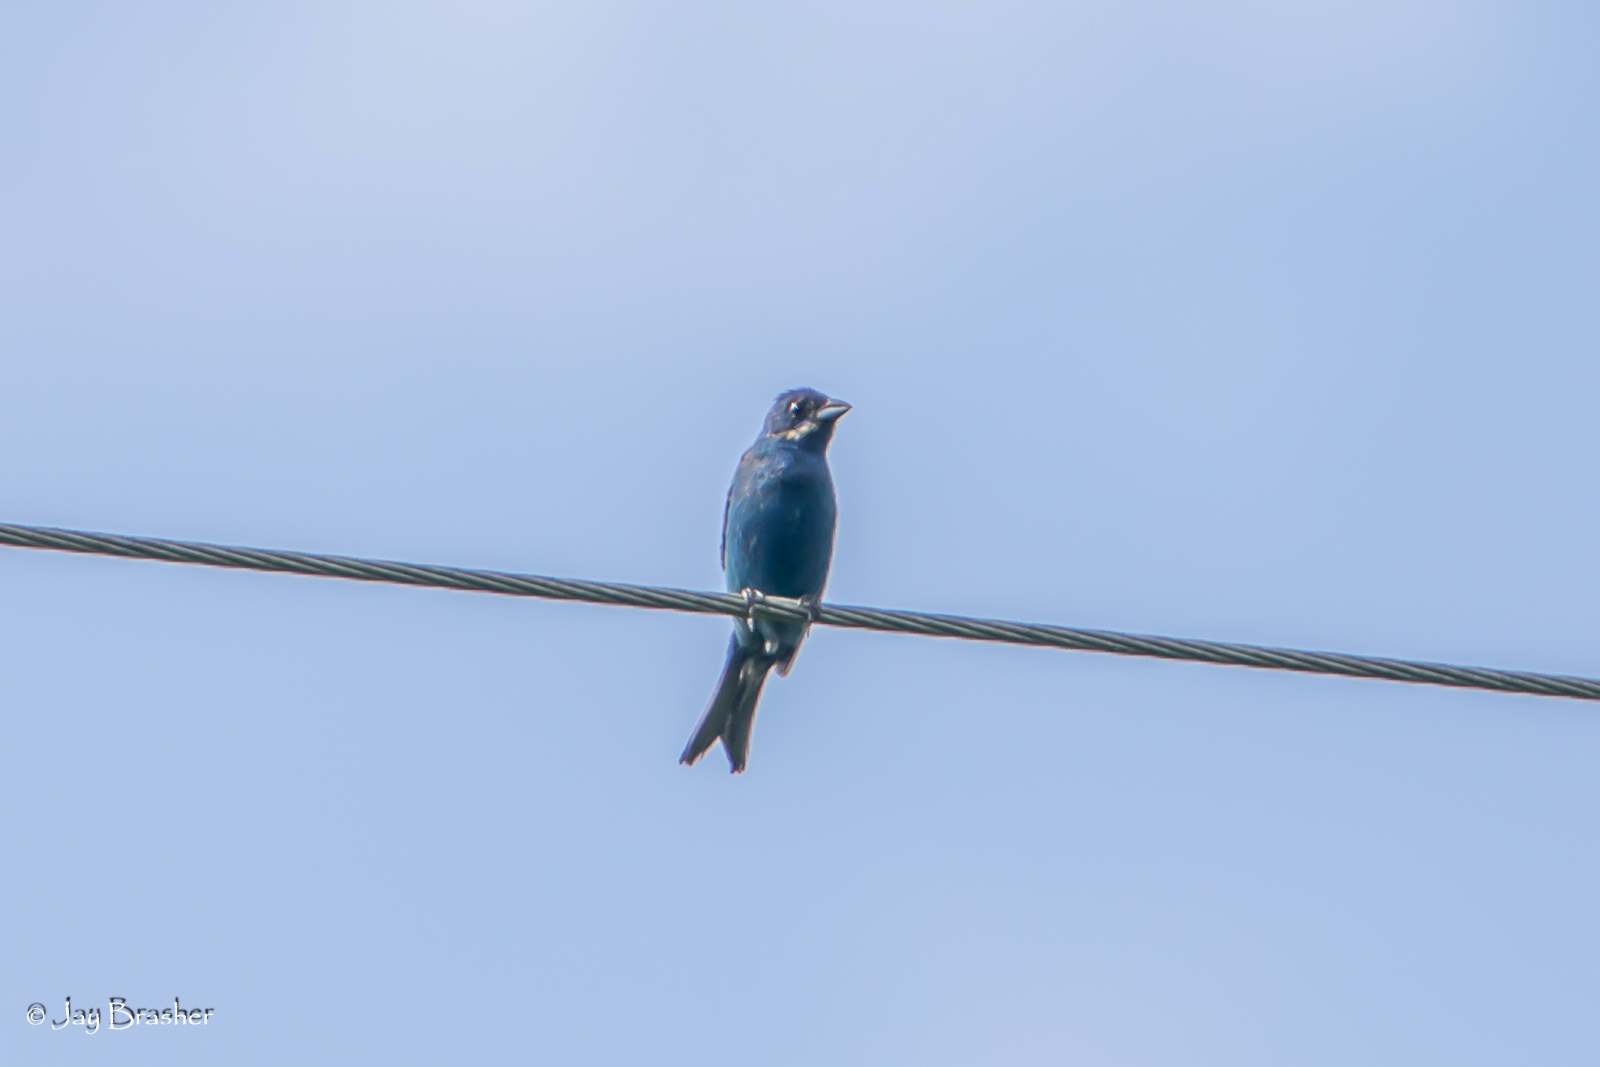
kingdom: Animalia
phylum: Chordata
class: Aves
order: Passeriformes
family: Cardinalidae
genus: Passerina
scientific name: Passerina cyanea
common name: Indigo bunting
